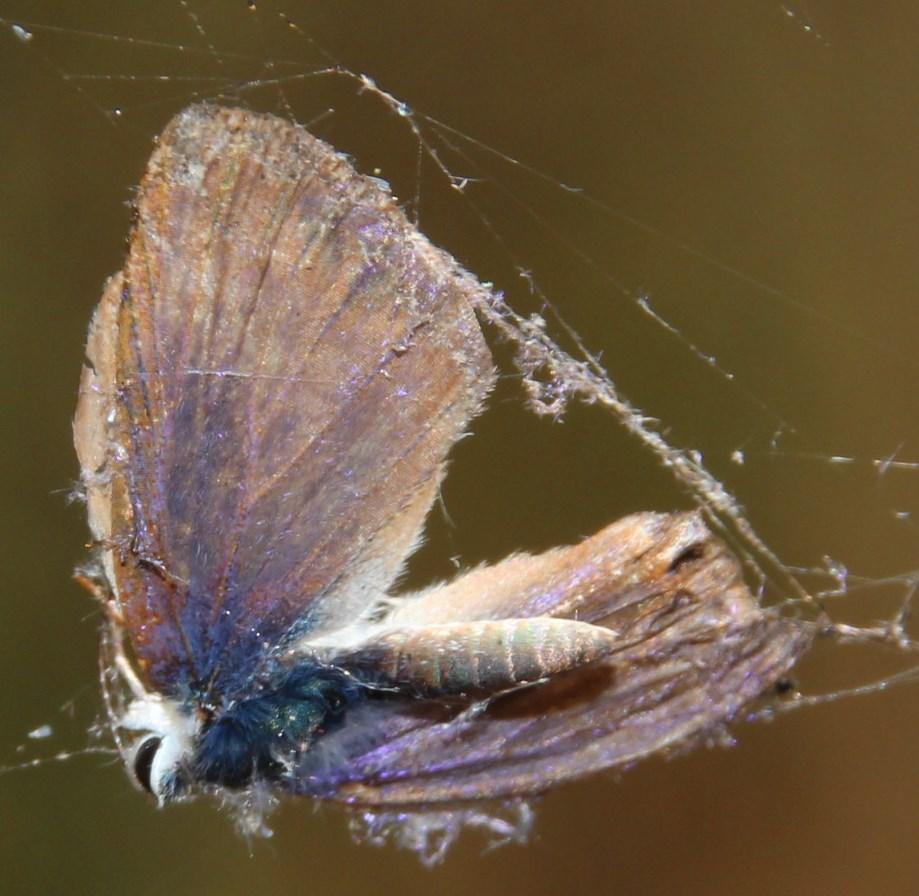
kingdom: Animalia
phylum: Arthropoda
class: Insecta
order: Lepidoptera
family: Lycaenidae
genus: Lampides
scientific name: Lampides boeticus
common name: Long-tailed blue
